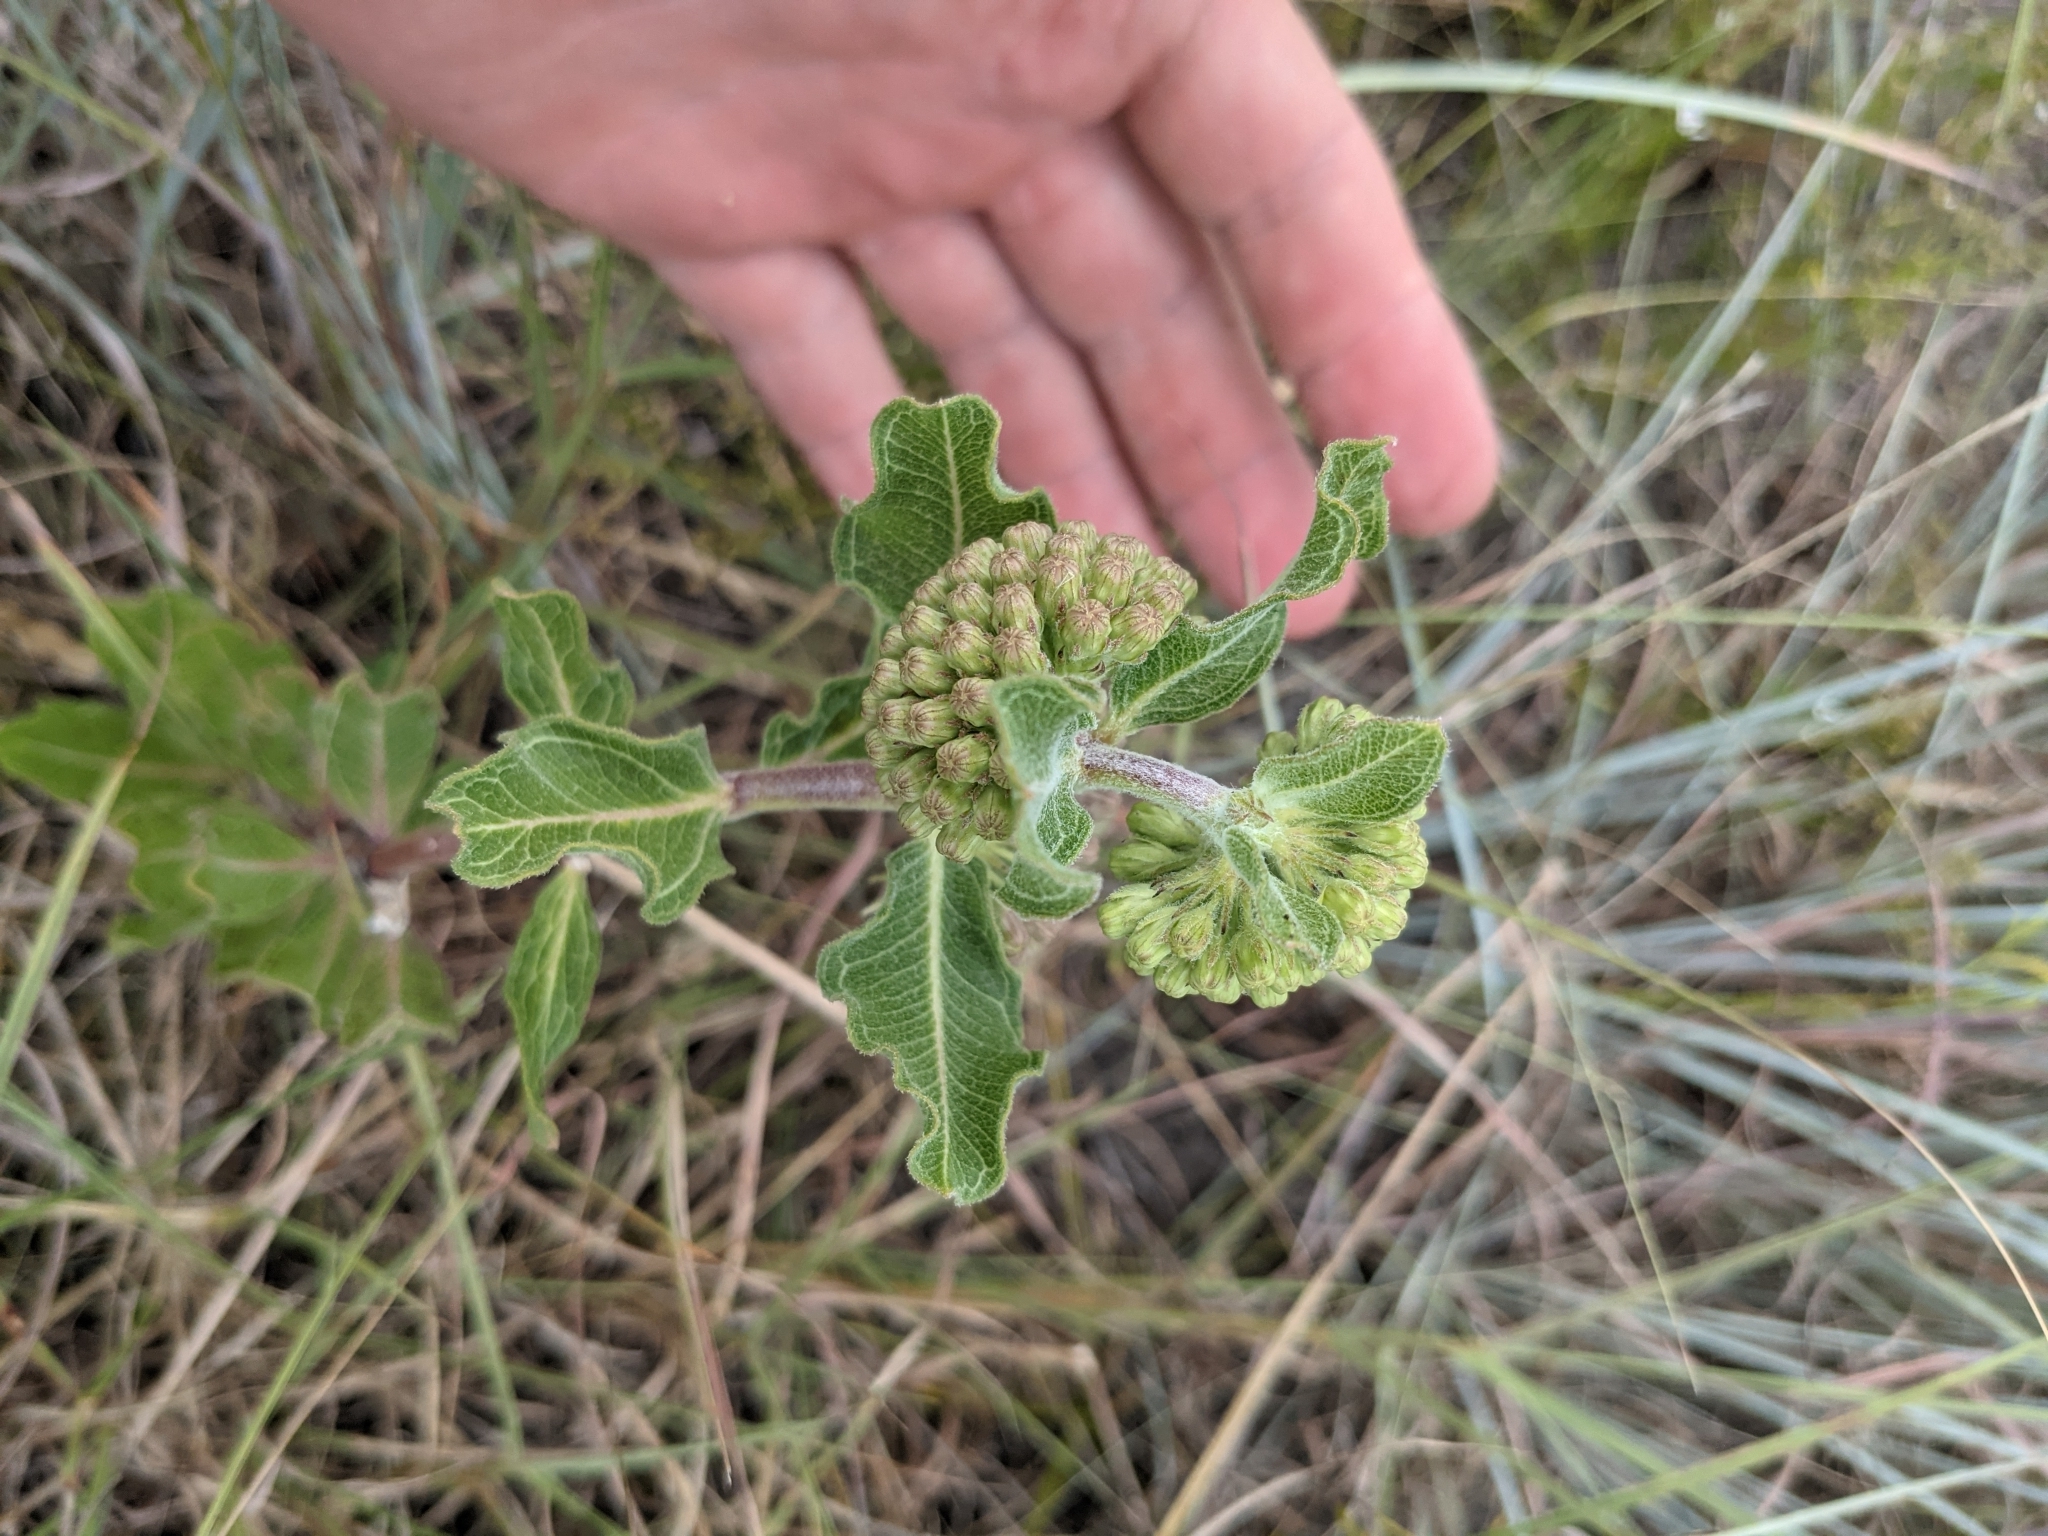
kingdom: Plantae
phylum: Tracheophyta
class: Magnoliopsida
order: Gentianales
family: Apocynaceae
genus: Asclepias
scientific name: Asclepias viridiflora
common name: Green comet milkweed
